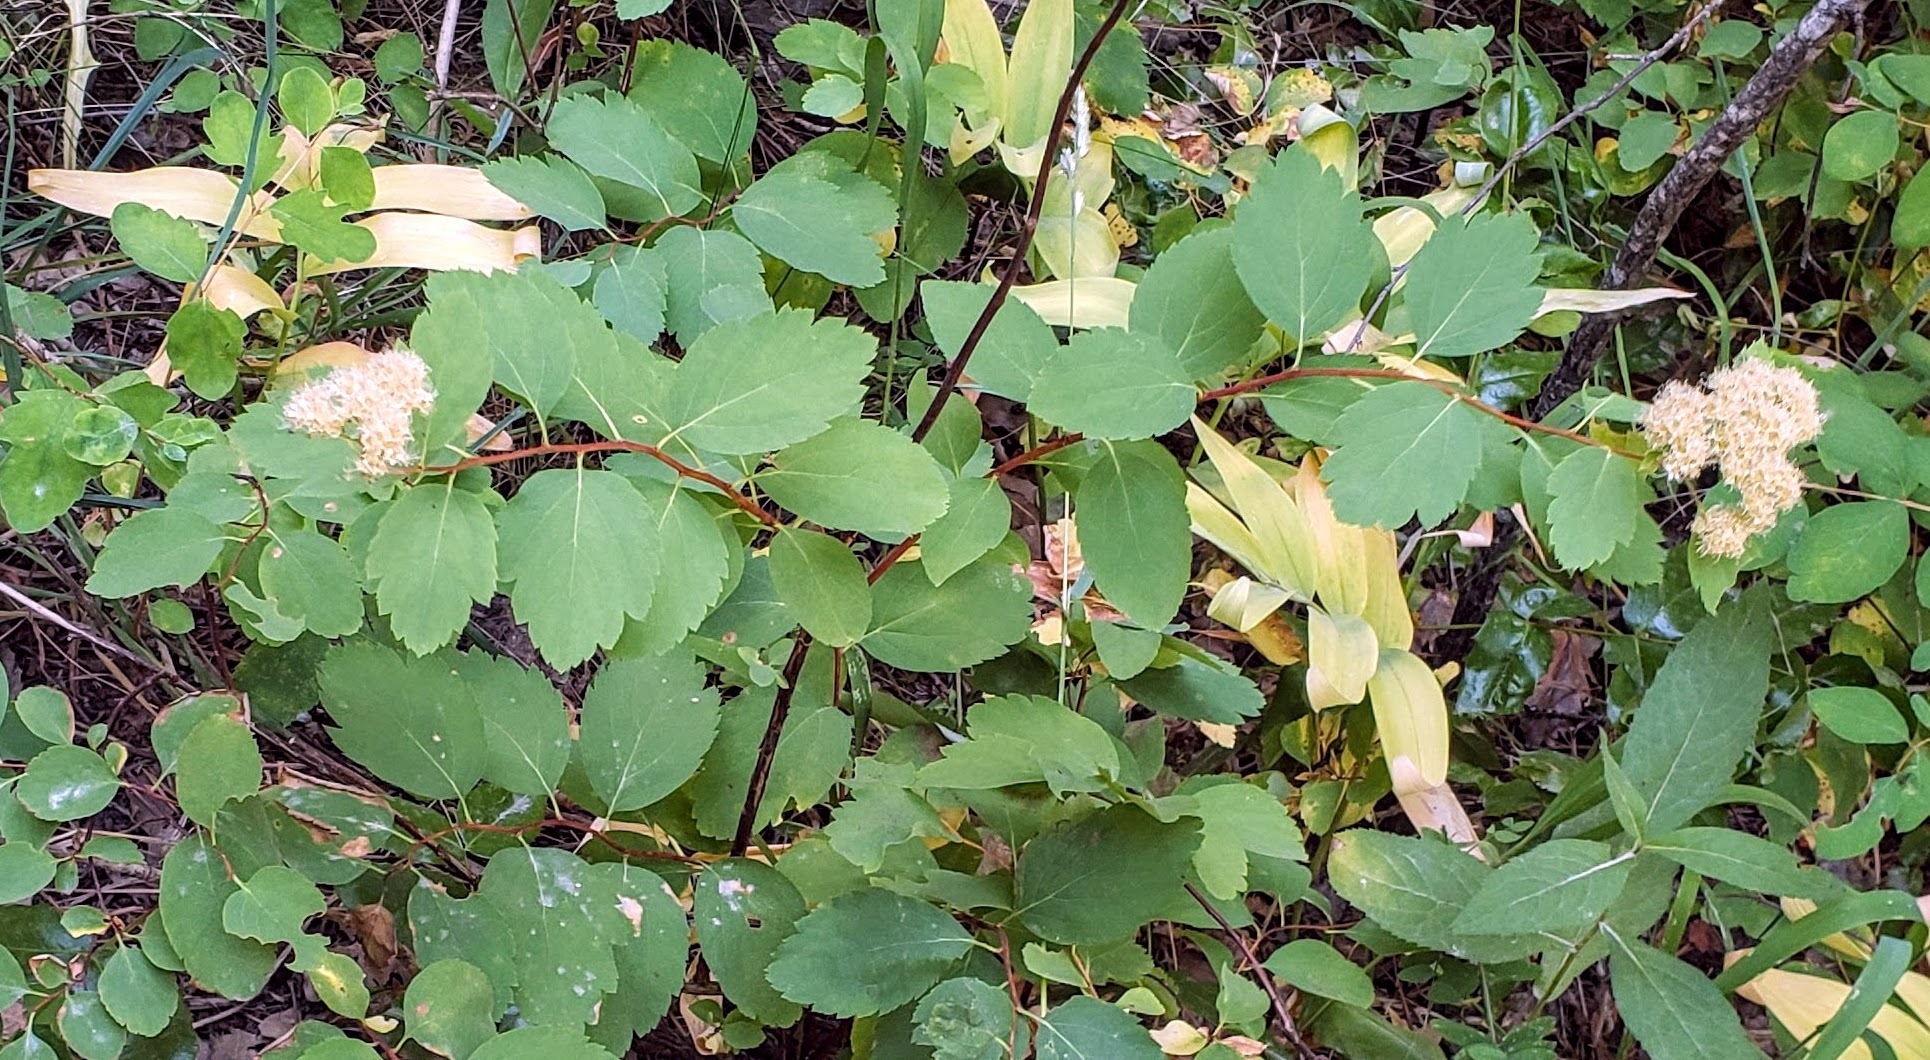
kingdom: Plantae
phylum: Tracheophyta
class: Magnoliopsida
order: Rosales
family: Rosaceae
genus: Spiraea
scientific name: Spiraea lucida
